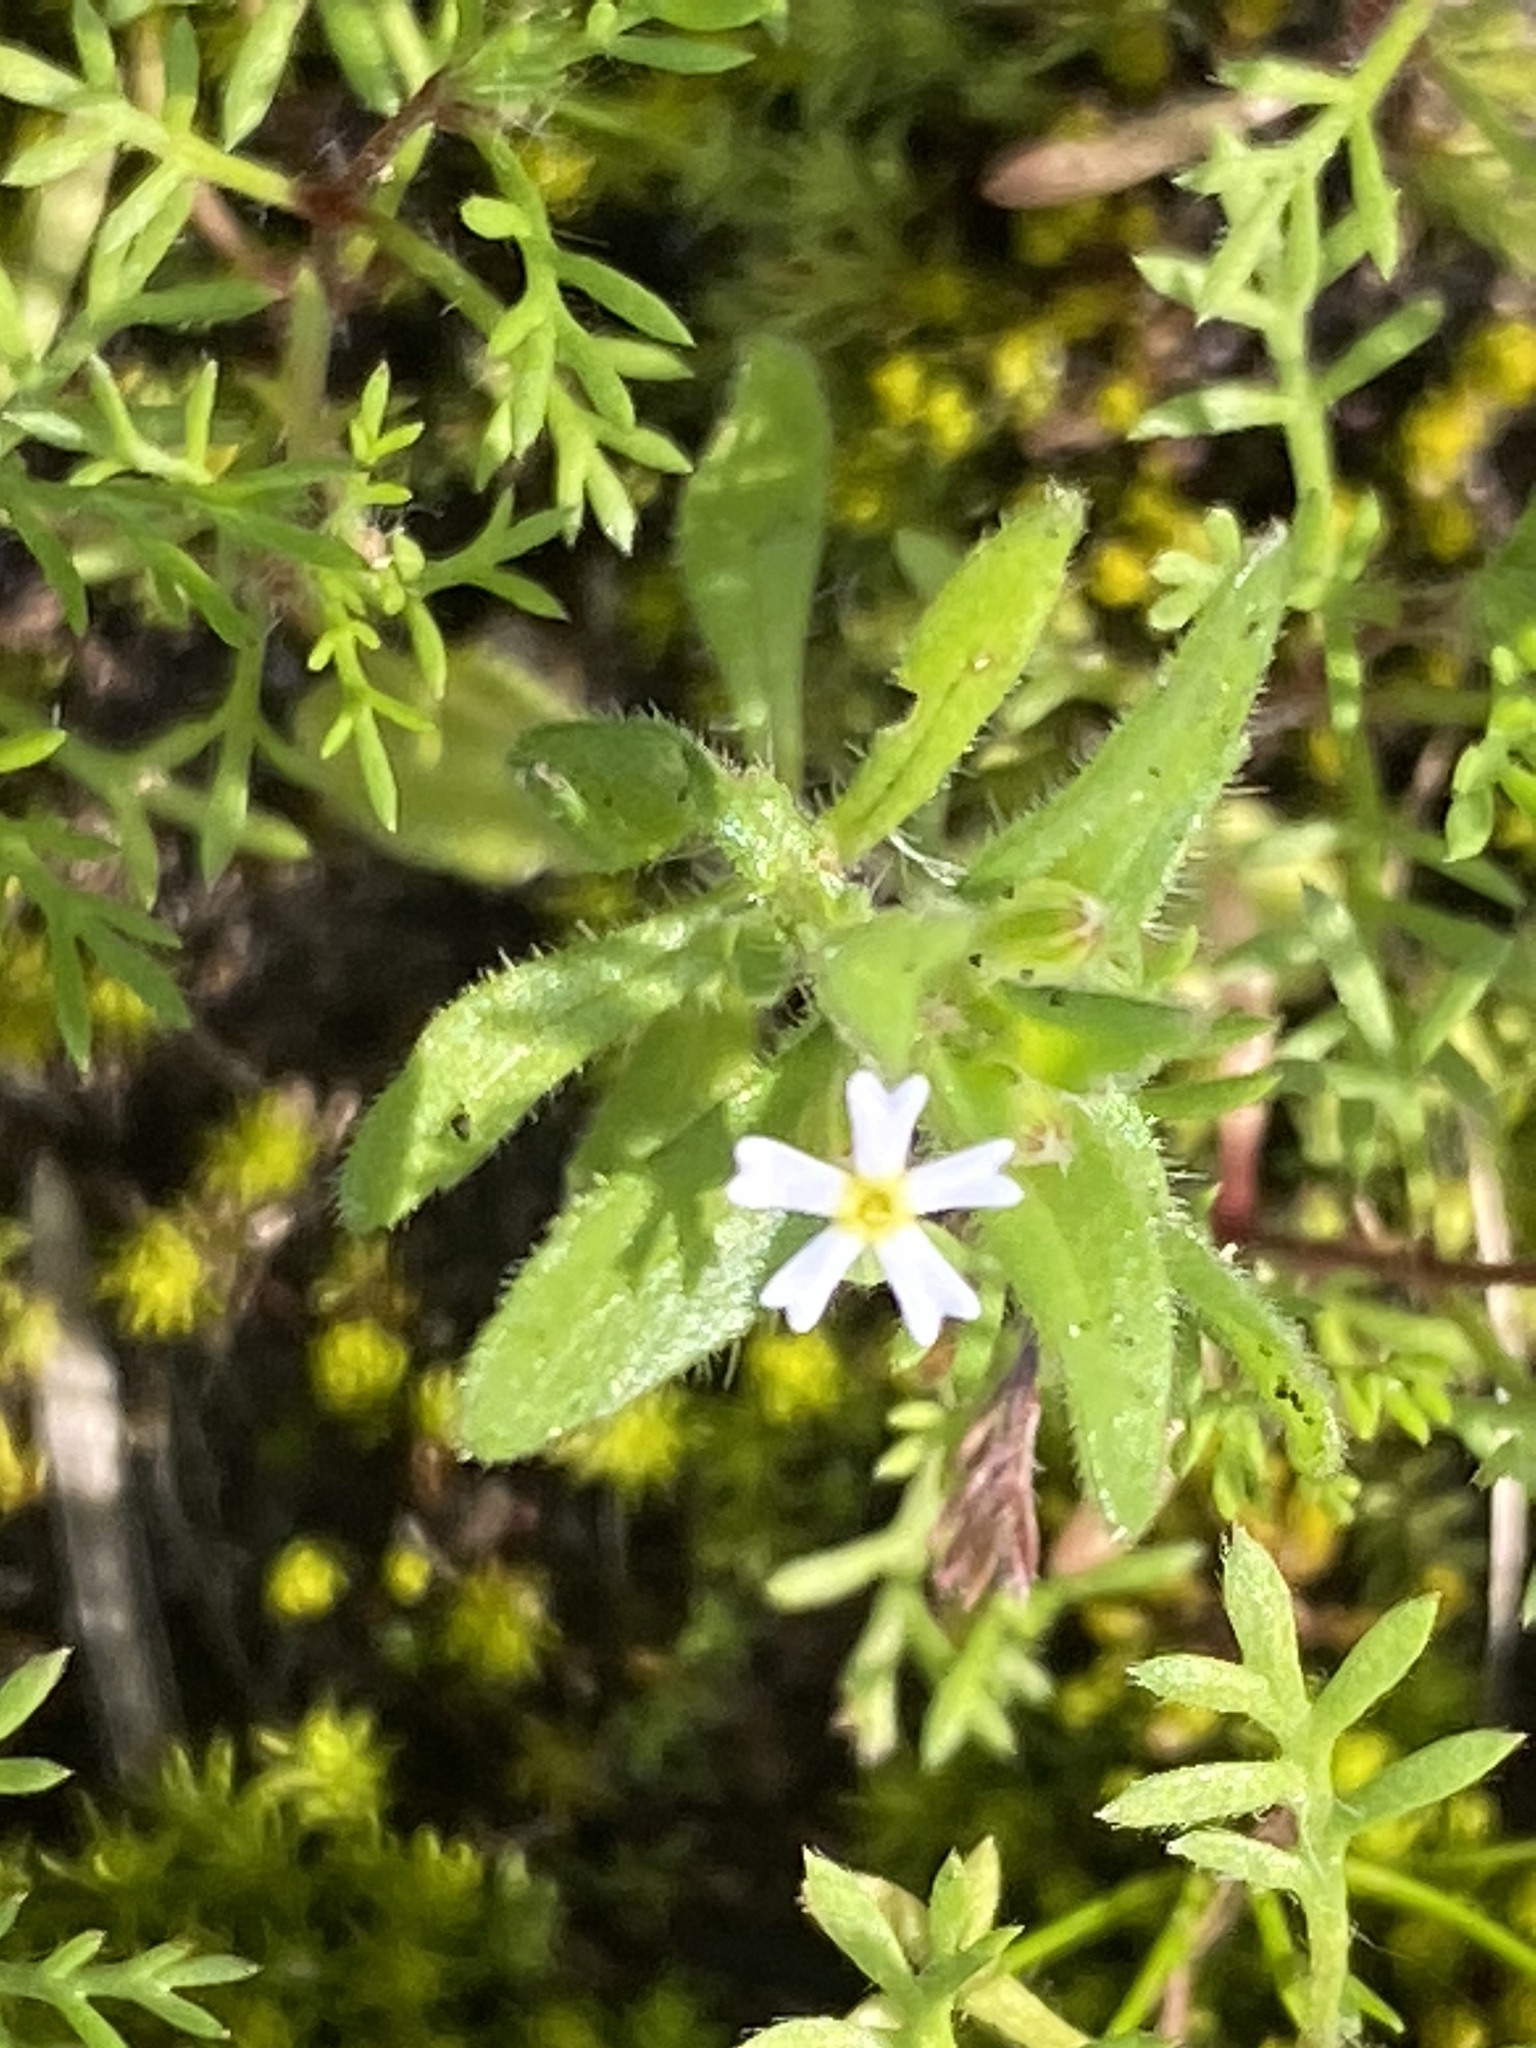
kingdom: Plantae
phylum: Tracheophyta
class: Magnoliopsida
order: Lamiales
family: Scrophulariaceae
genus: Zaluzianskya
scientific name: Zaluzianskya gracilis
